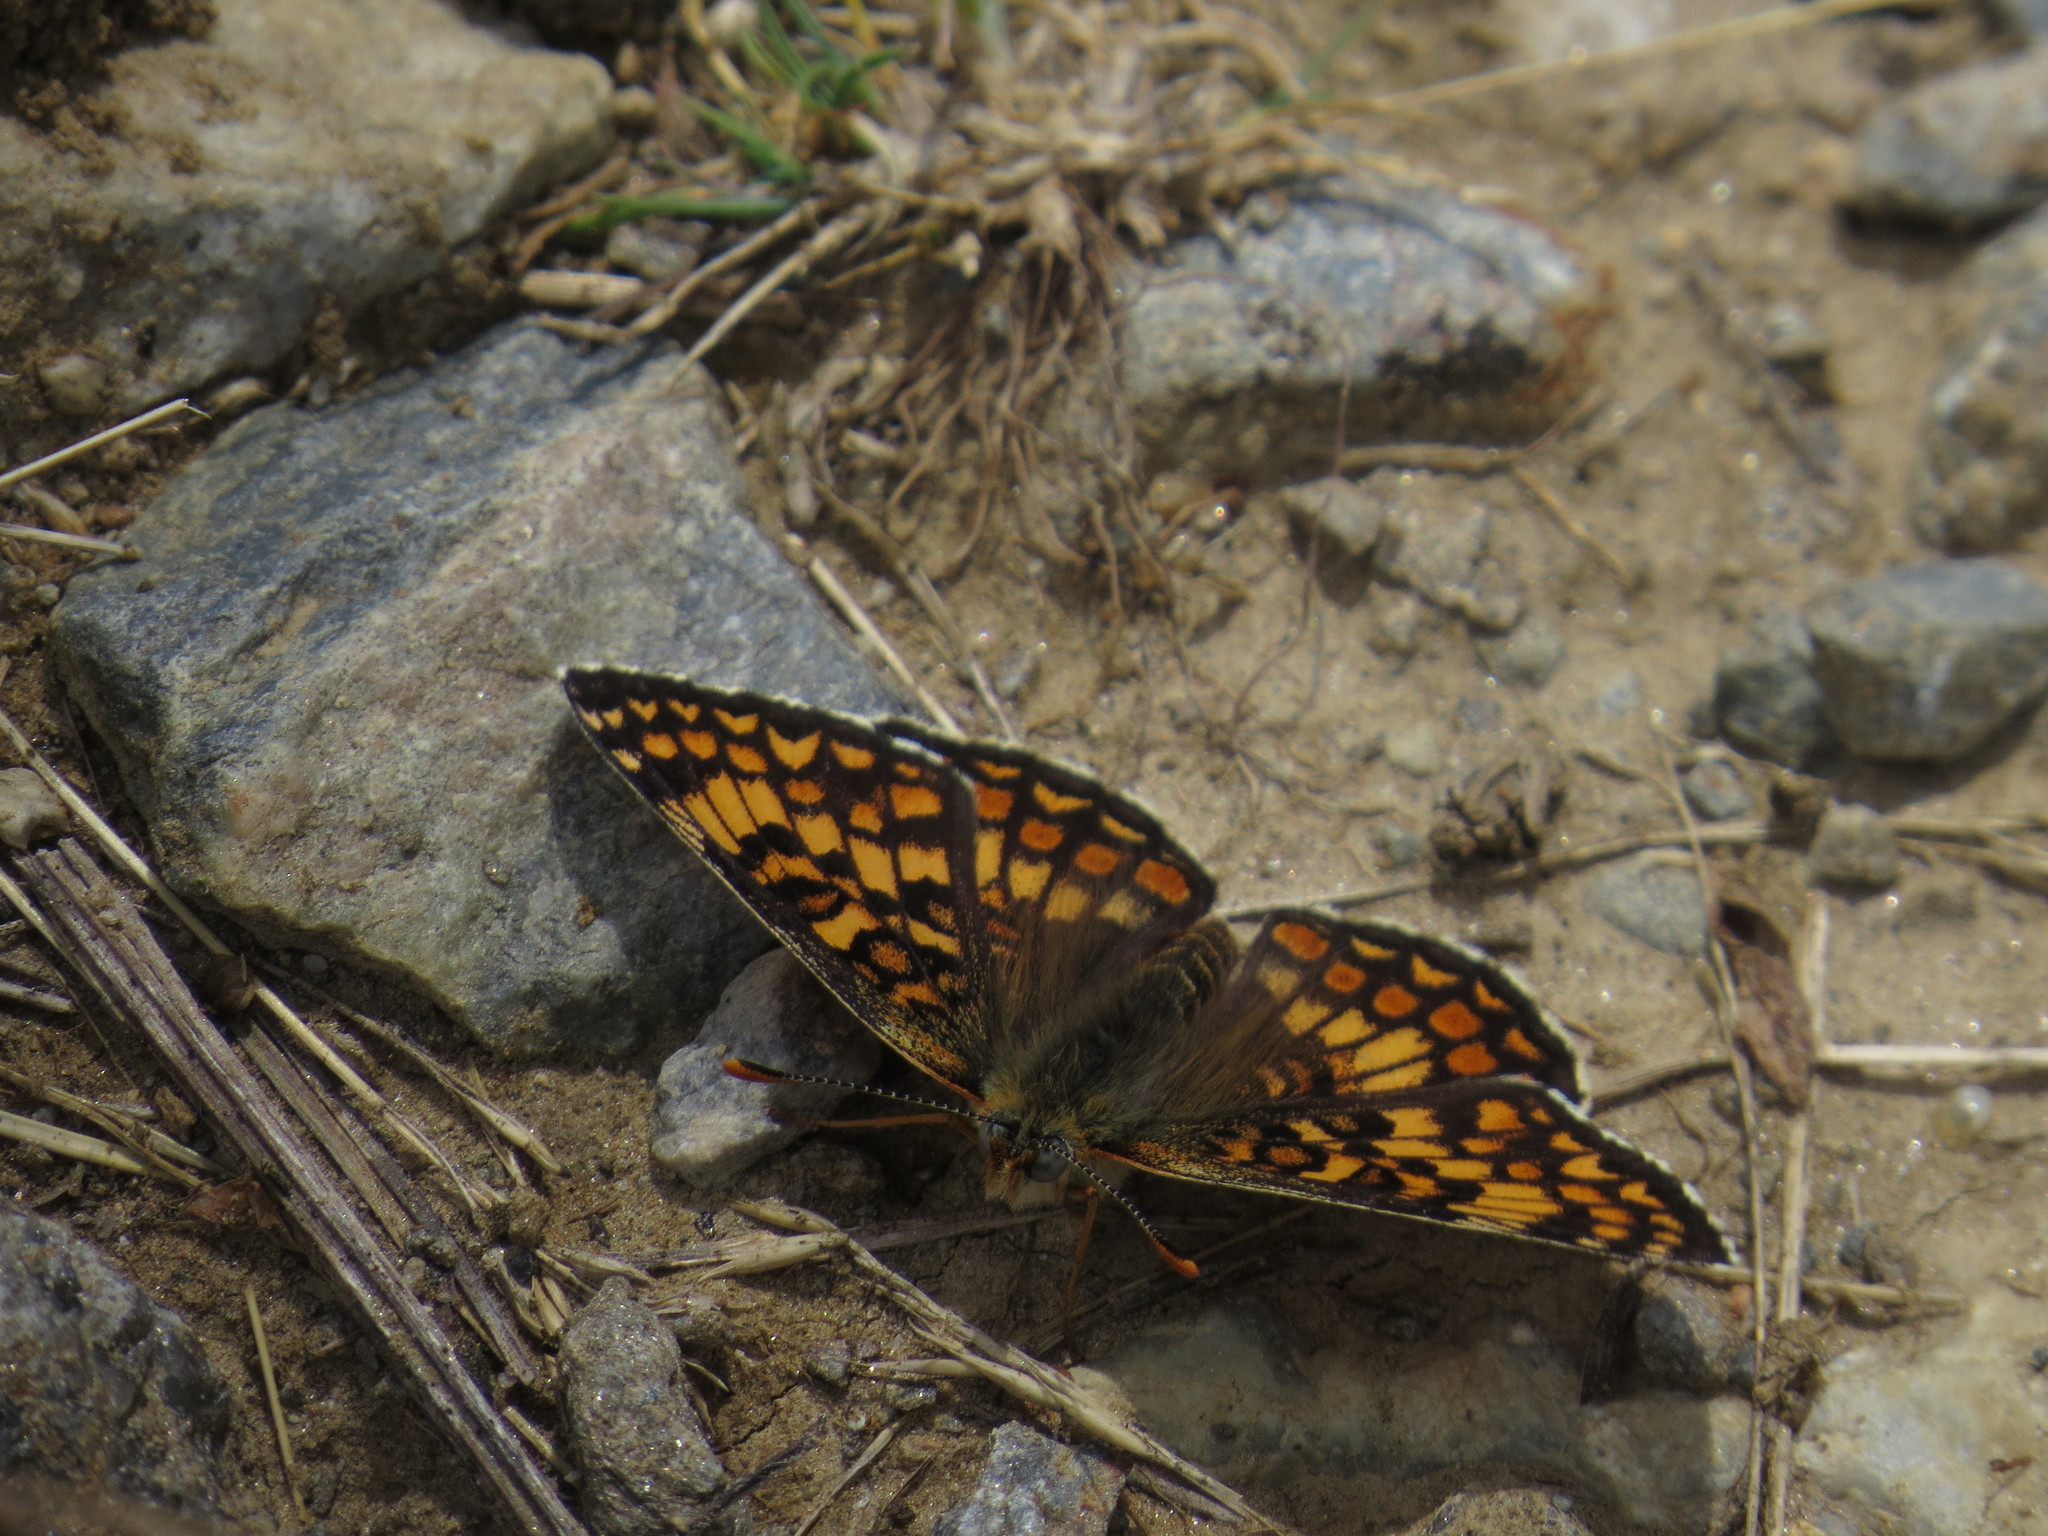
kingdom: Animalia
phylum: Arthropoda
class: Insecta
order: Lepidoptera
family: Nymphalidae
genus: Melitaea
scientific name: Melitaea phoebe
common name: Knapweed fritillary
